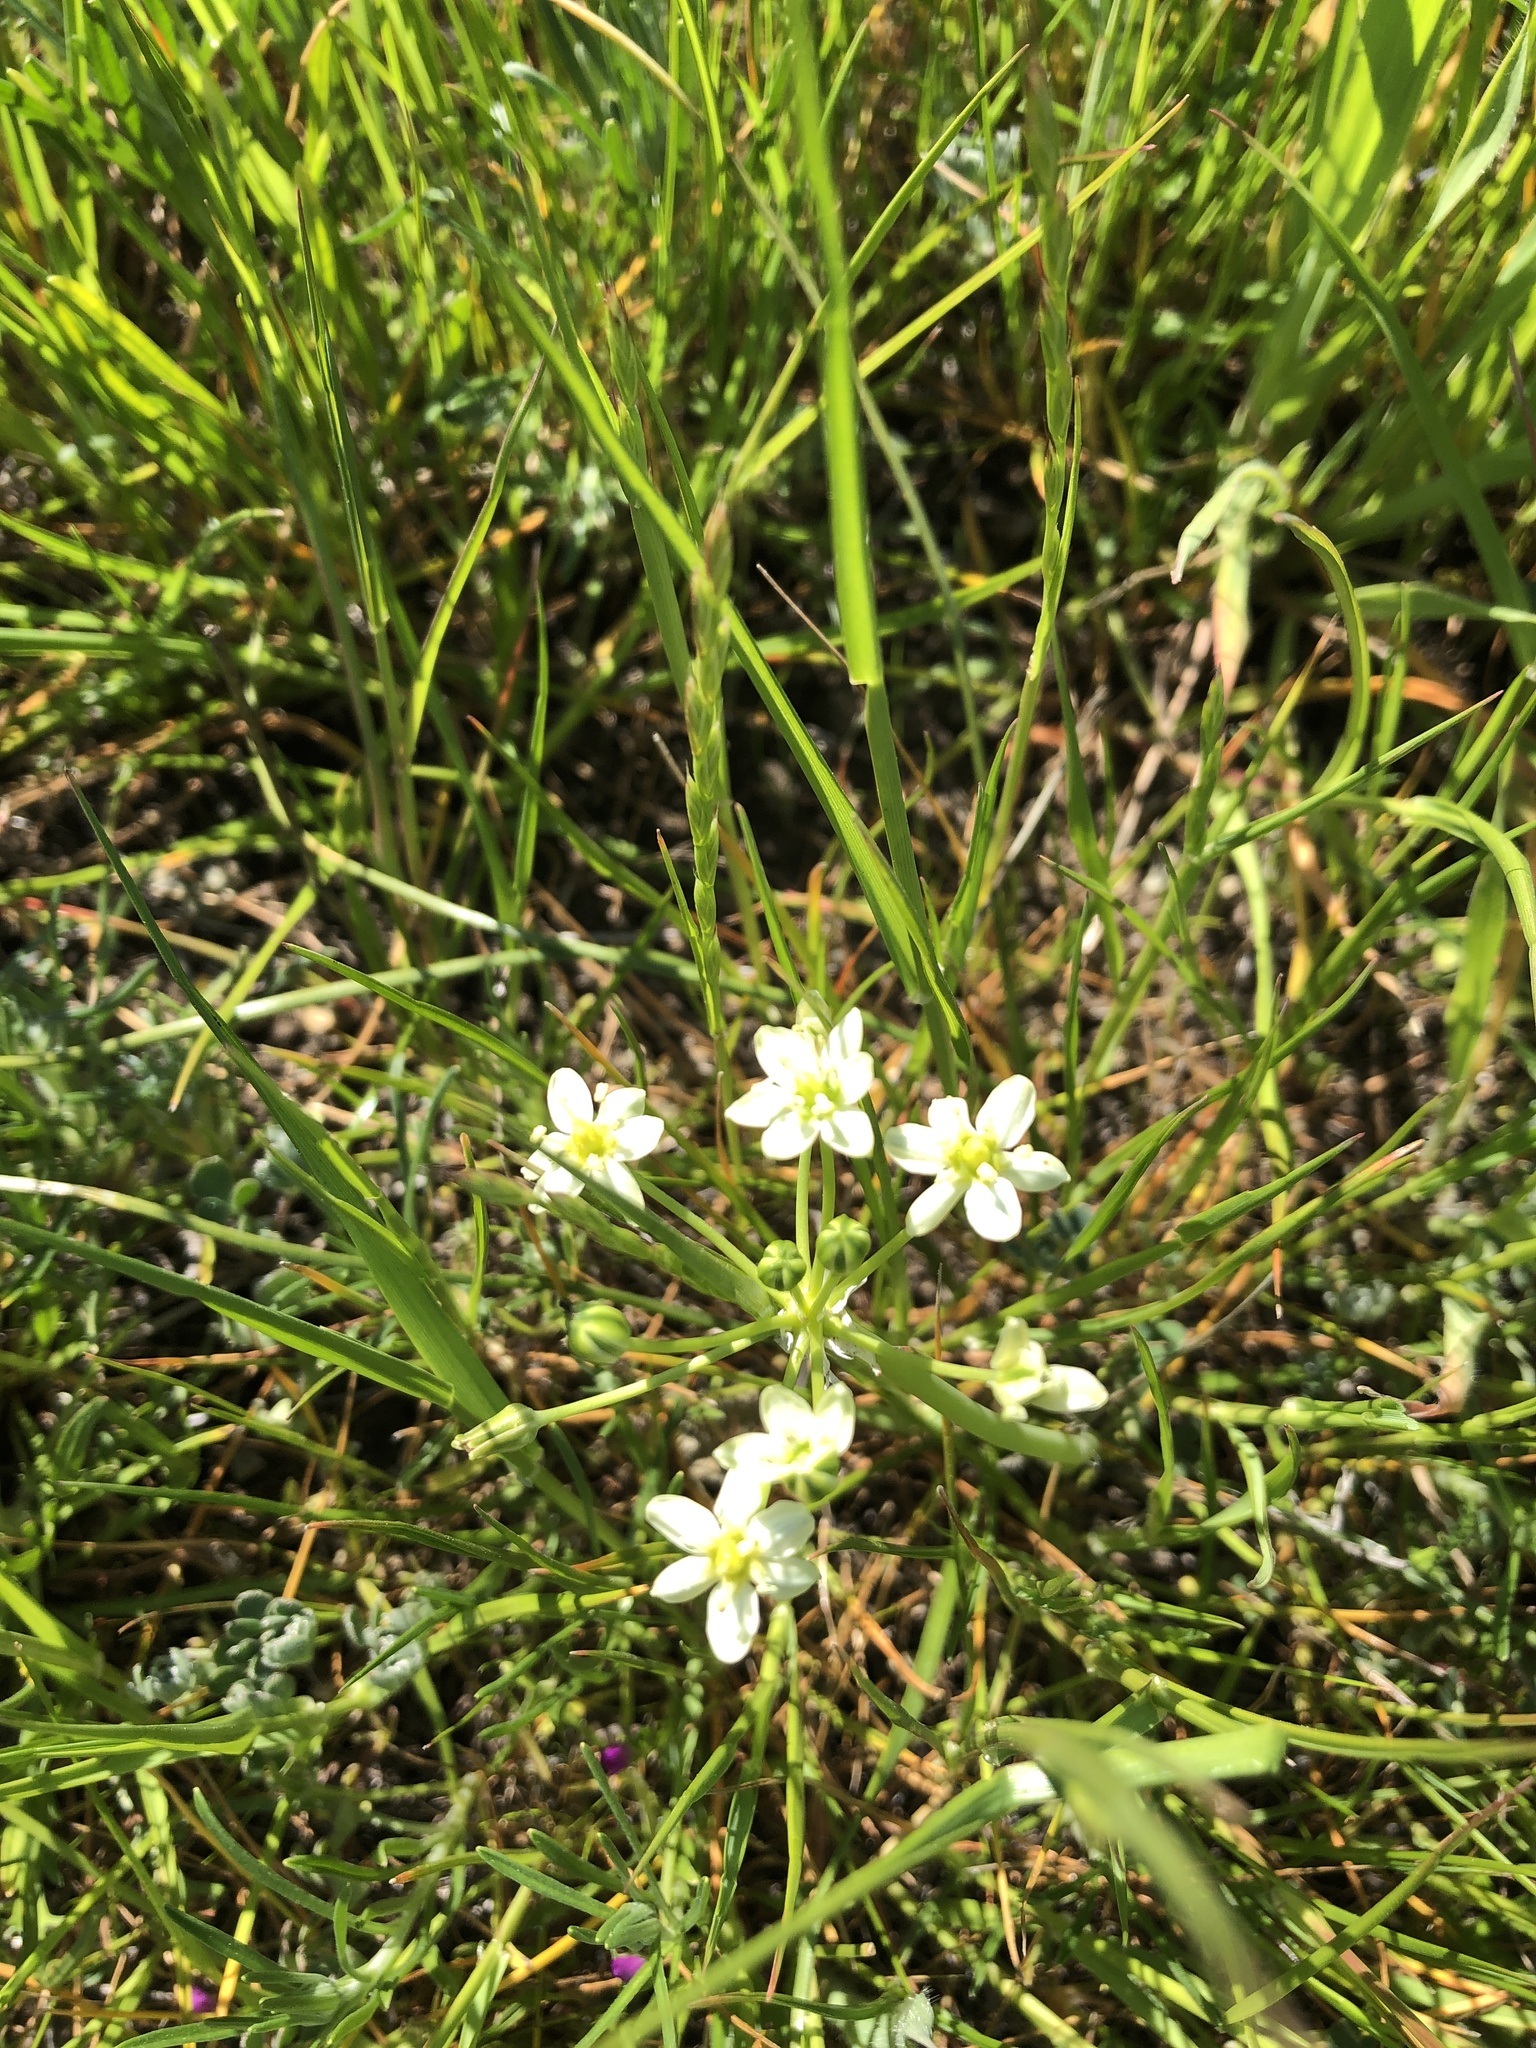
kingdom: Plantae
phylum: Tracheophyta
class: Liliopsida
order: Asparagales
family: Asparagaceae
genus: Muilla
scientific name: Muilla maritima
